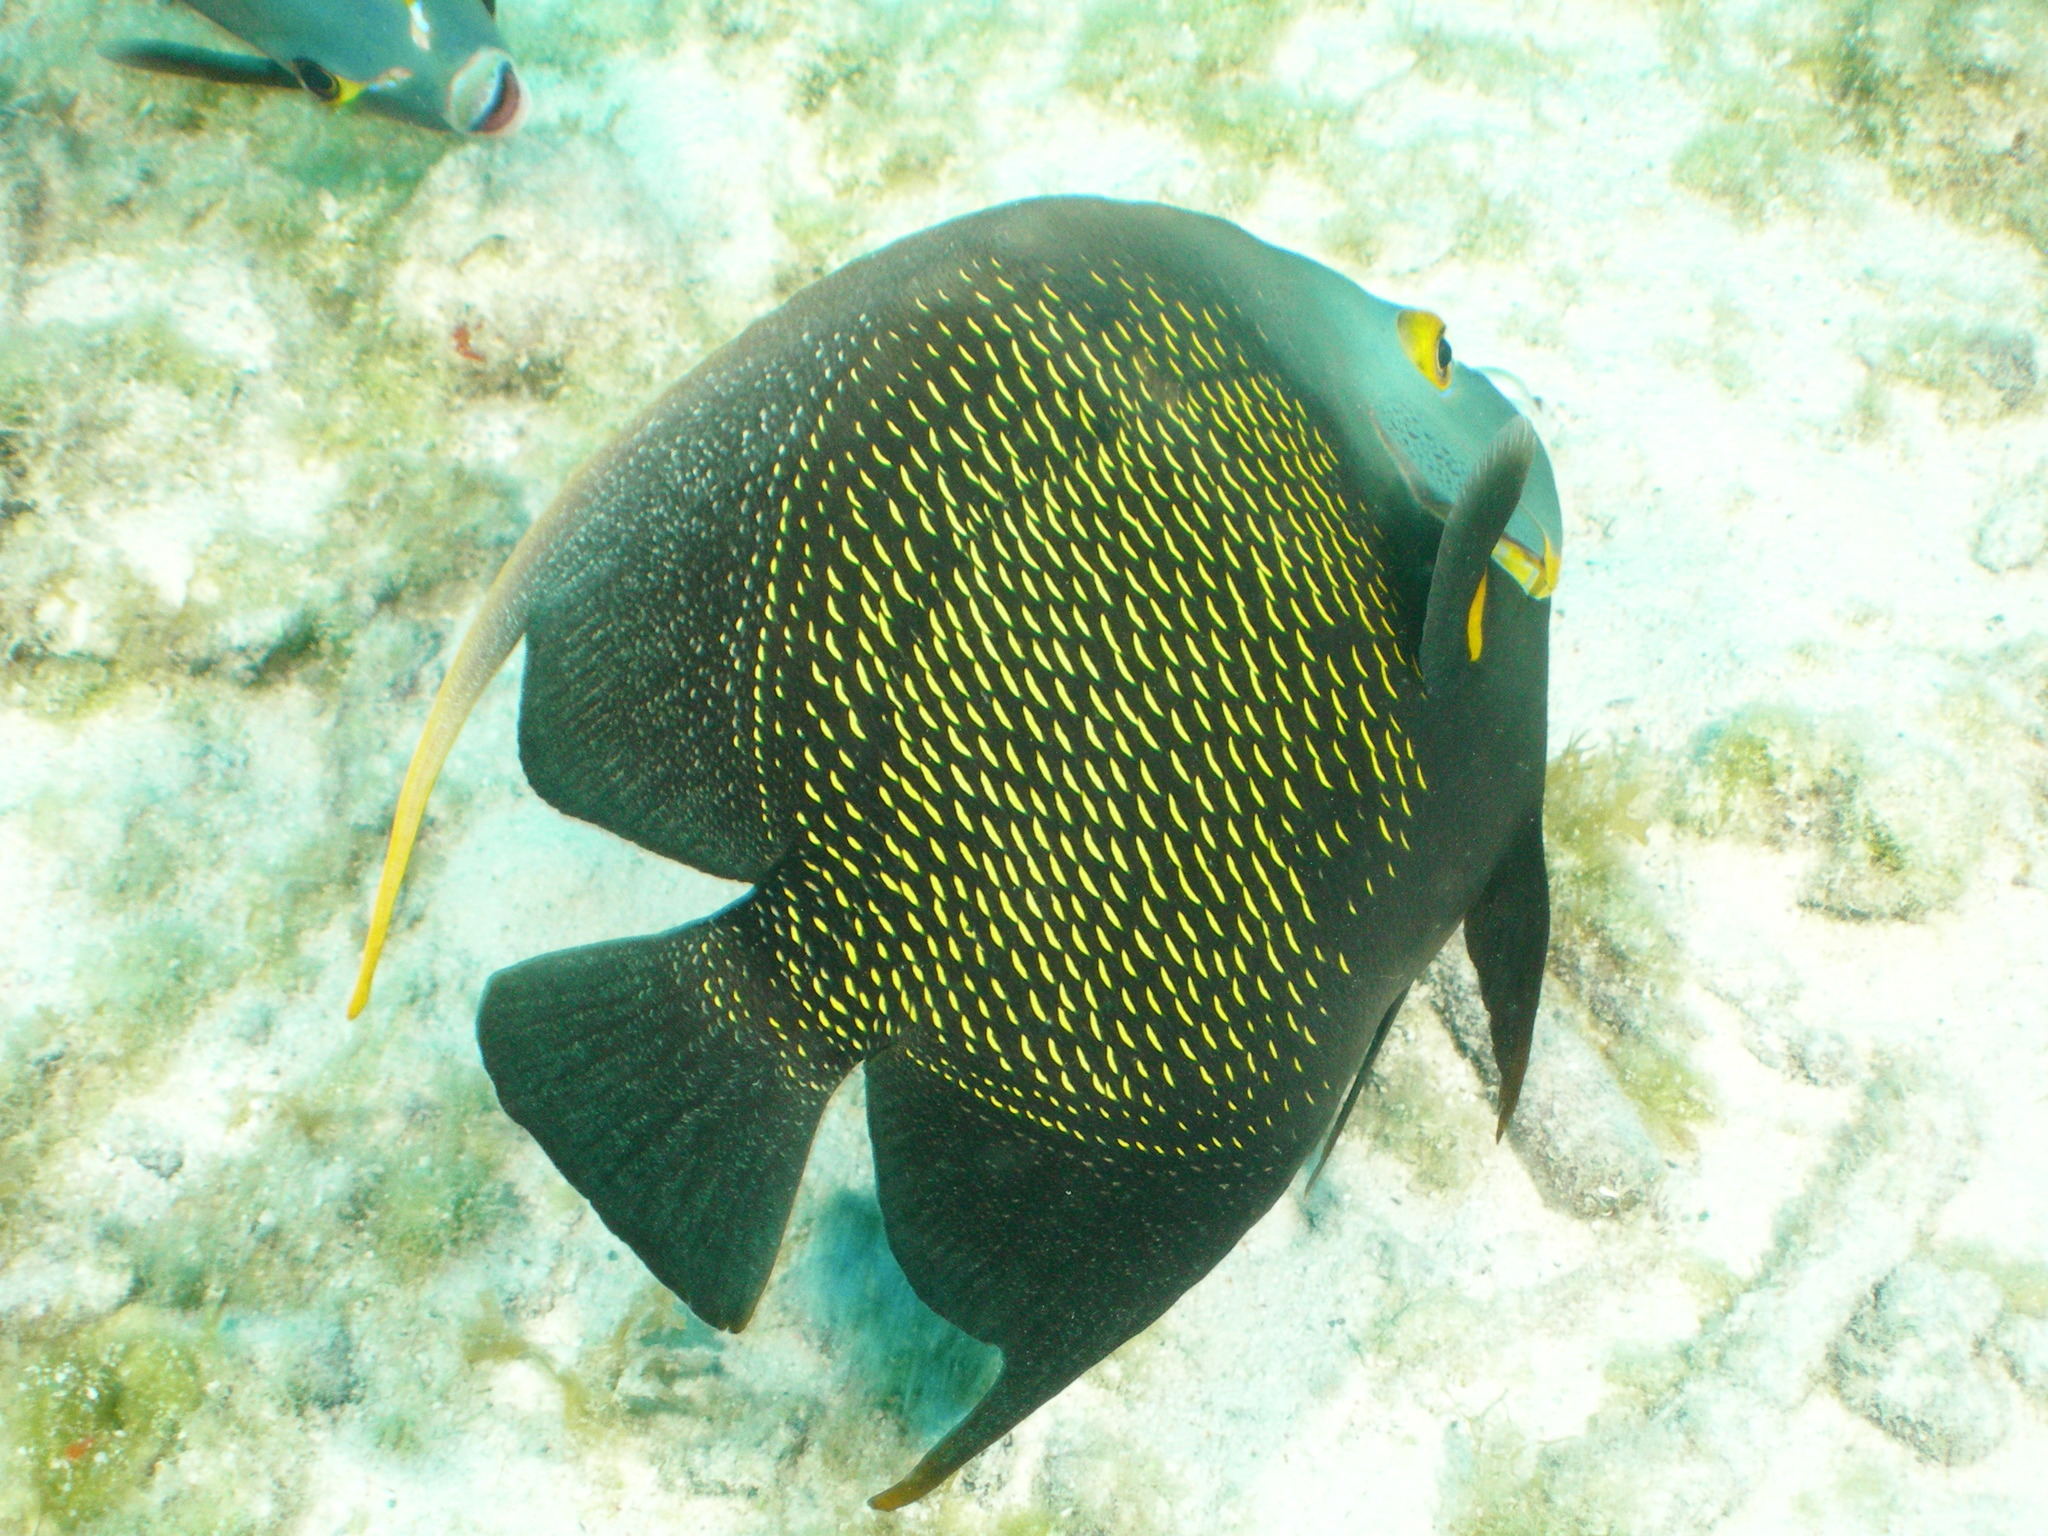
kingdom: Animalia
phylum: Chordata
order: Perciformes
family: Pomacanthidae
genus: Pomacanthus
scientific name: Pomacanthus paru
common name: French angelfish
